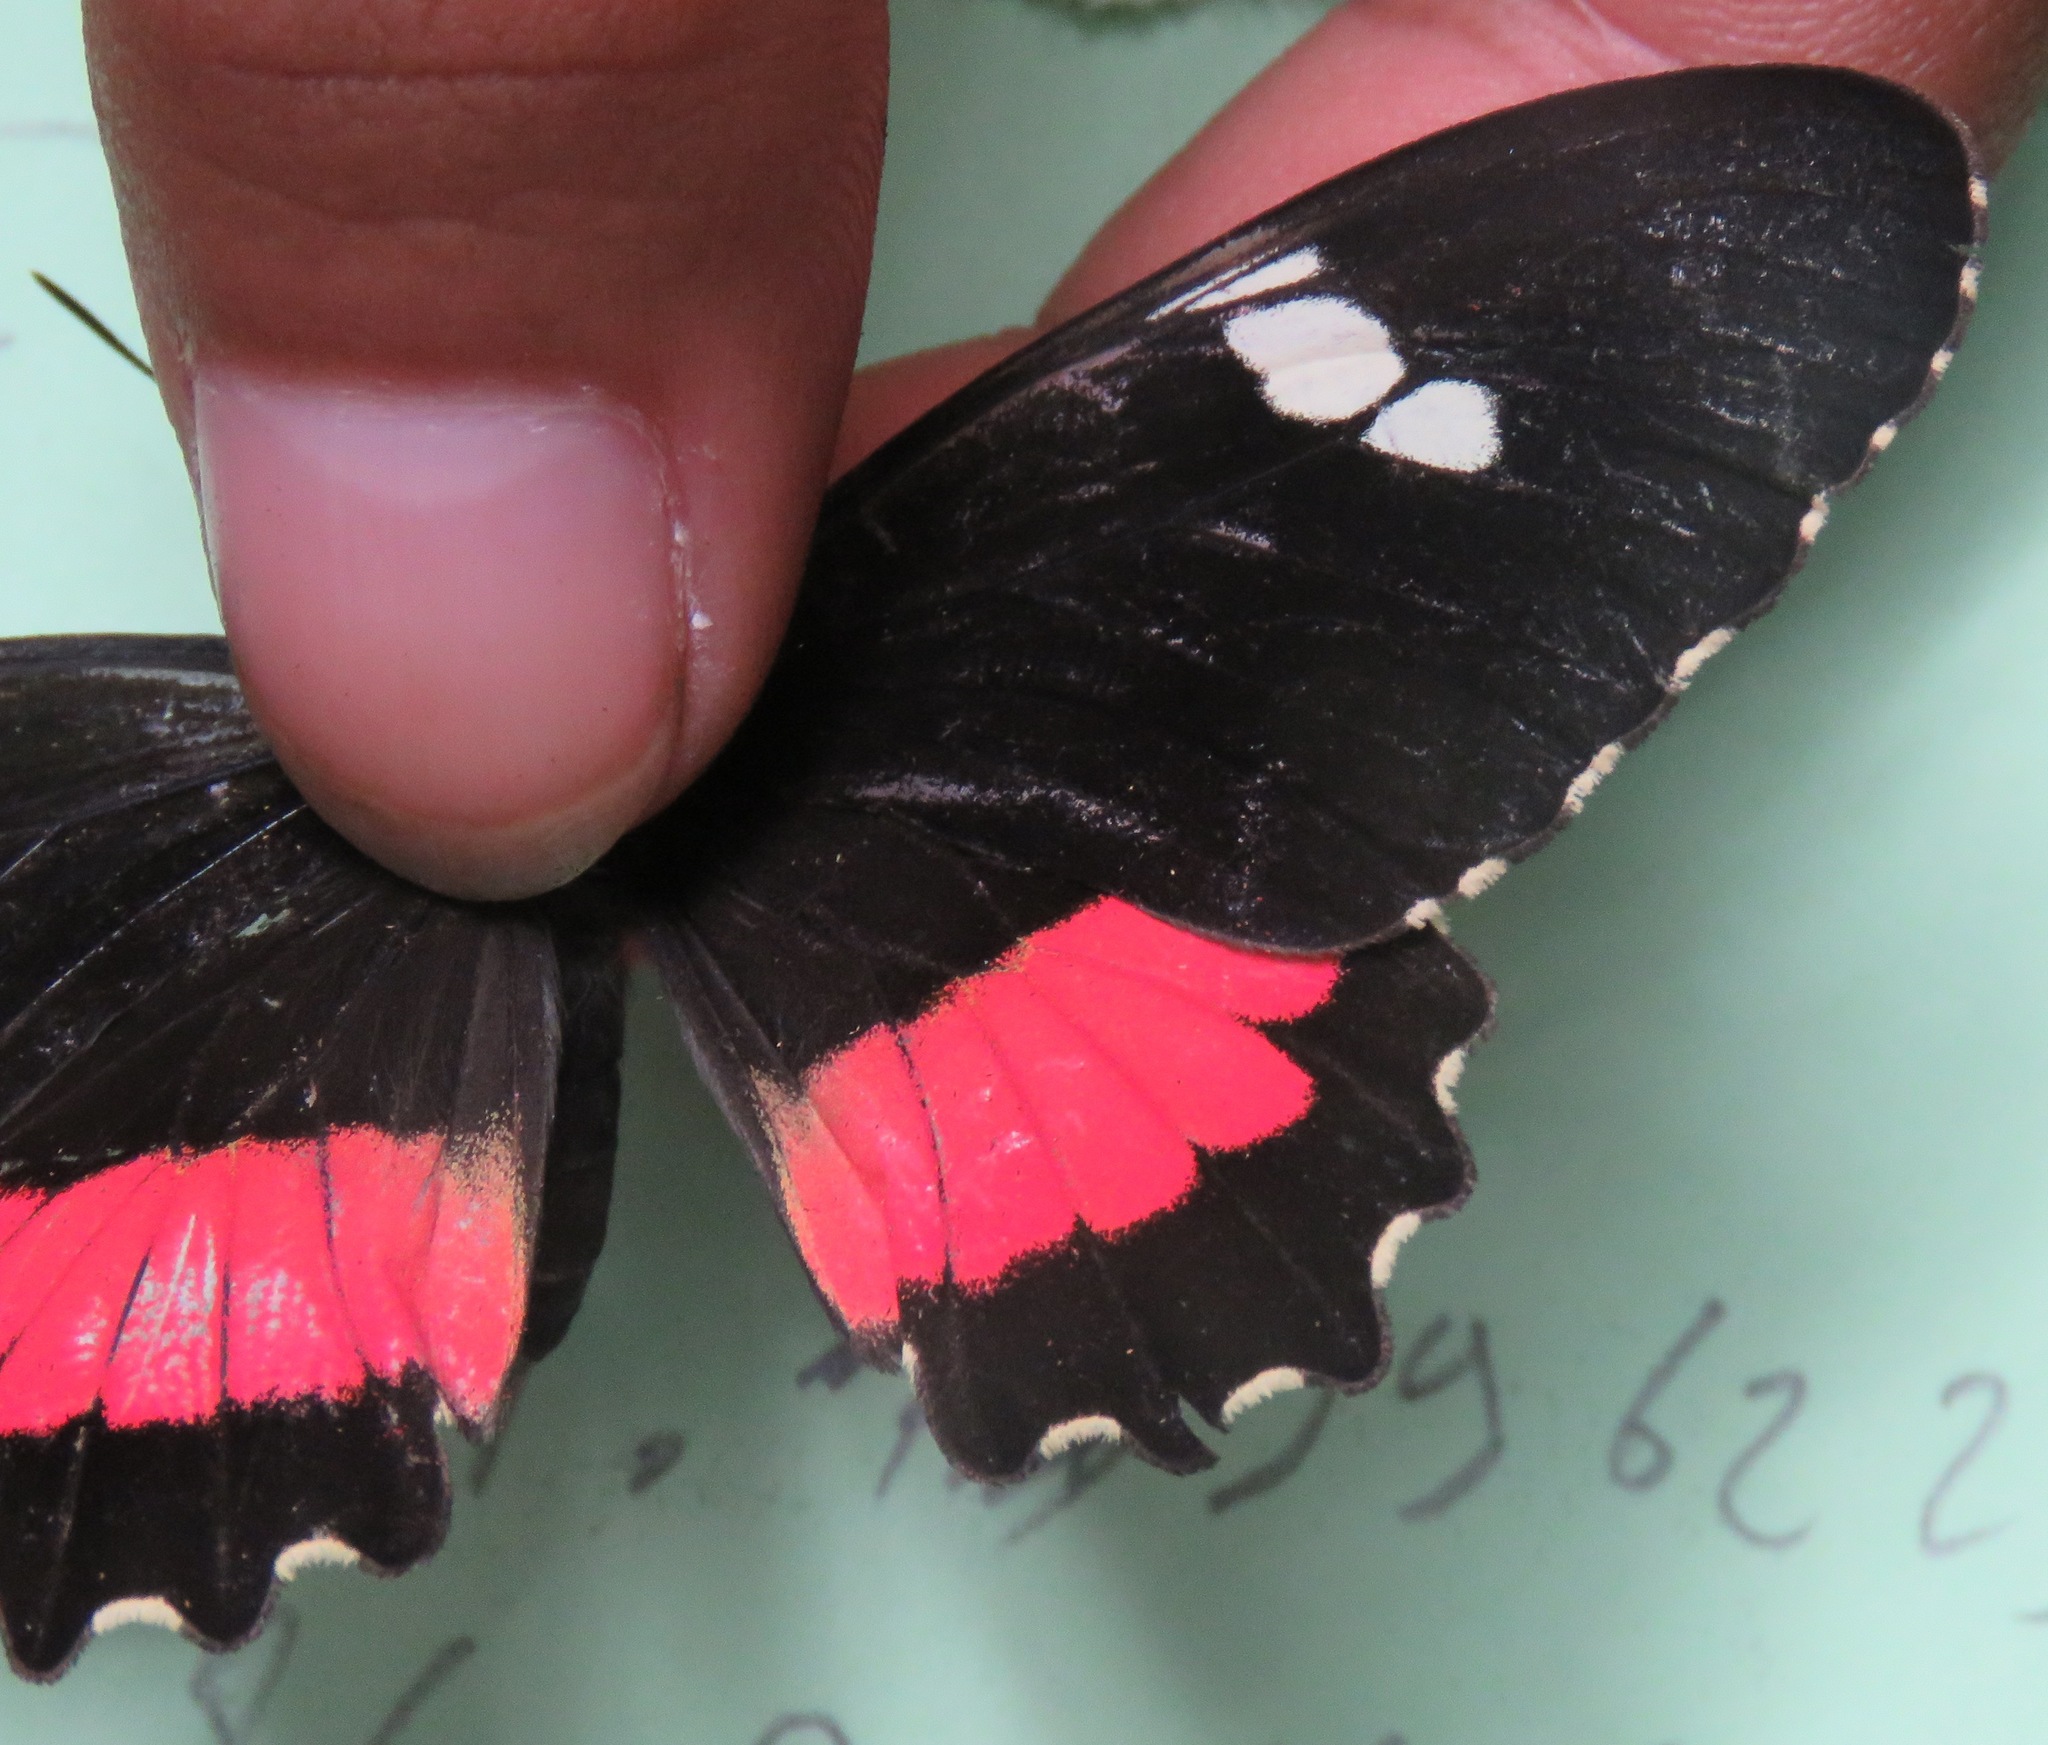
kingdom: Animalia
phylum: Arthropoda
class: Insecta
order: Lepidoptera
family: Papilionidae
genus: Parides
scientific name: Parides iphidamas
